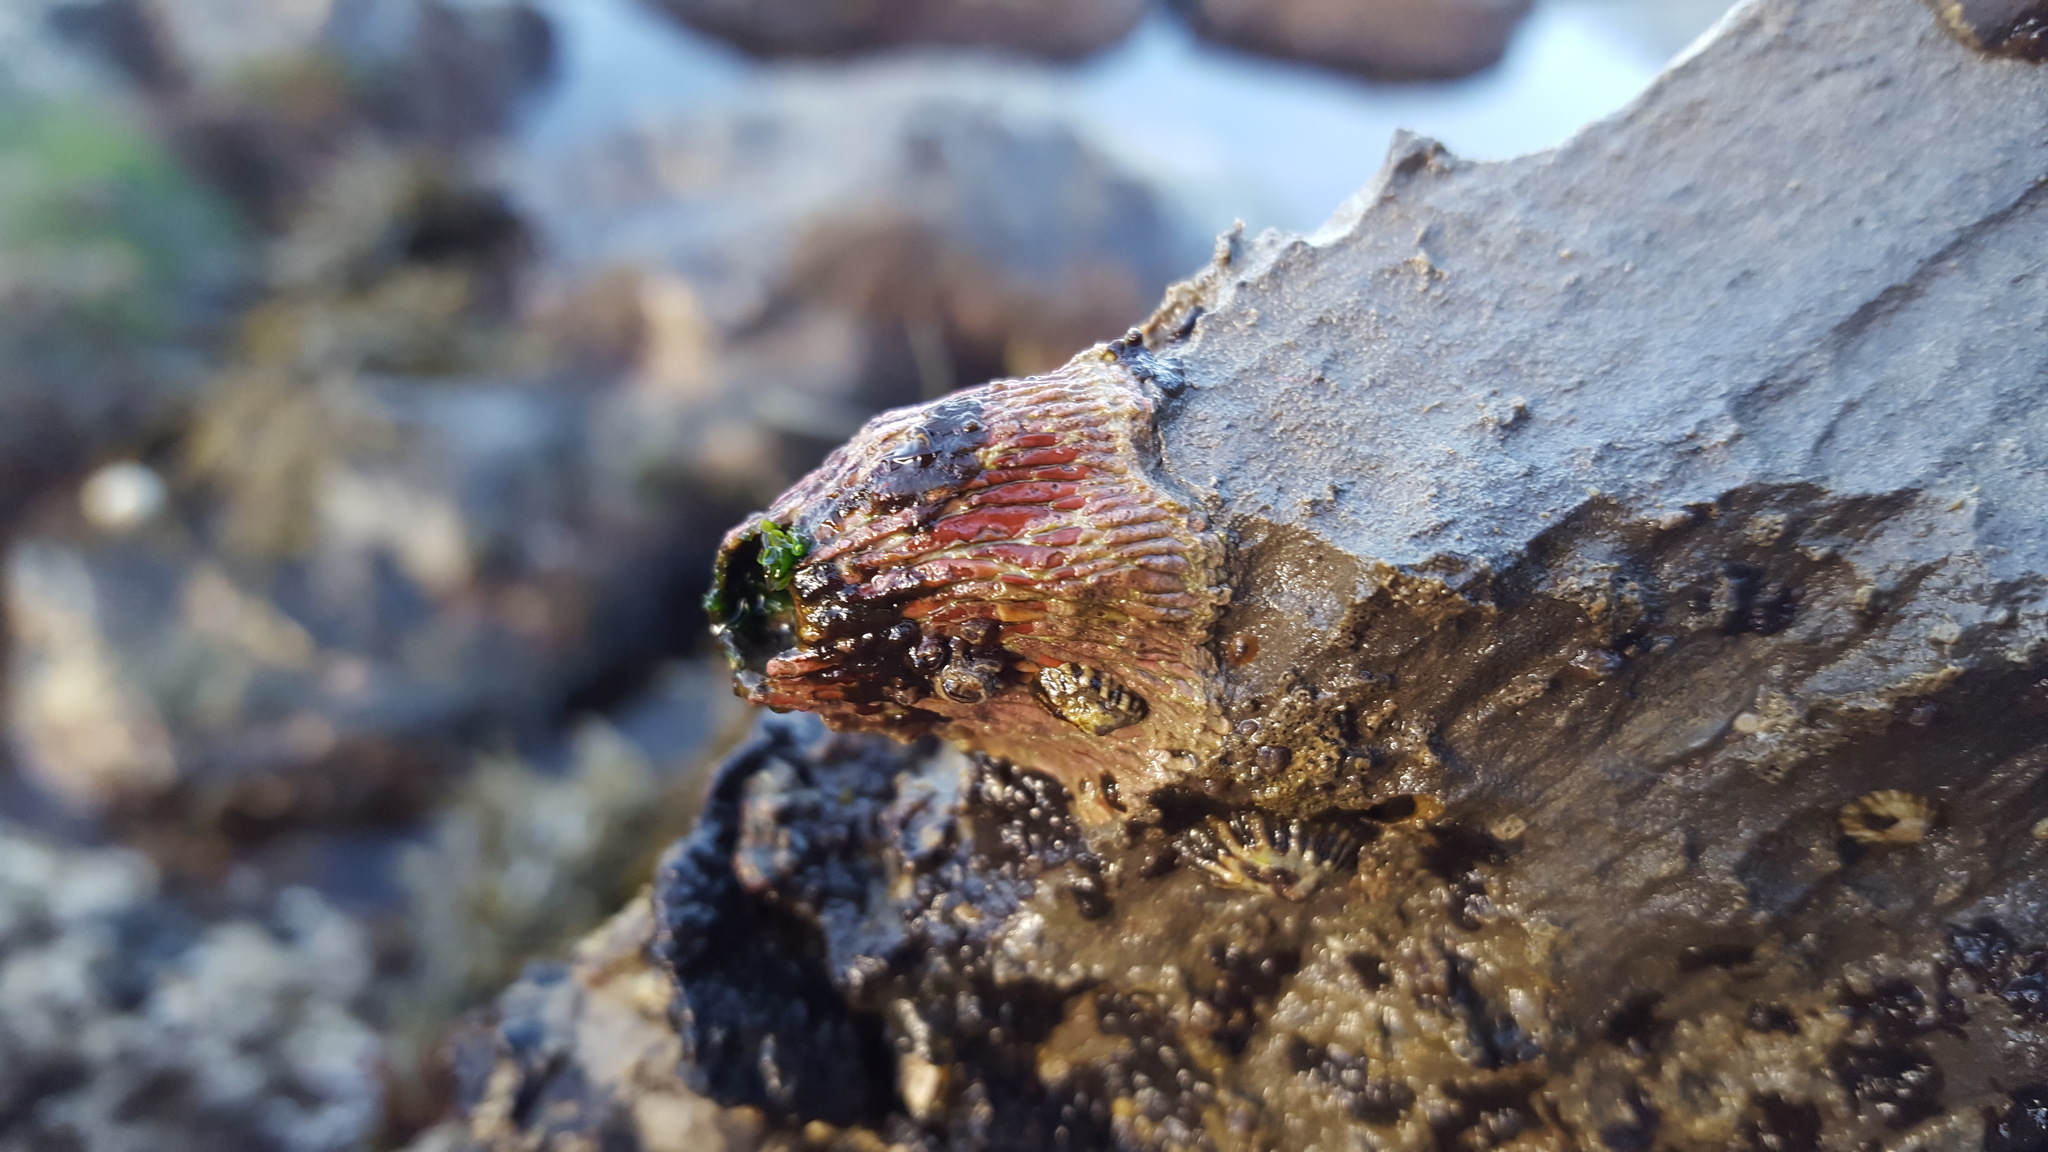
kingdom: Animalia
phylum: Arthropoda
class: Maxillopoda
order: Sessilia
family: Tetraclitidae
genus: Tetraclita
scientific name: Tetraclita rubescens
